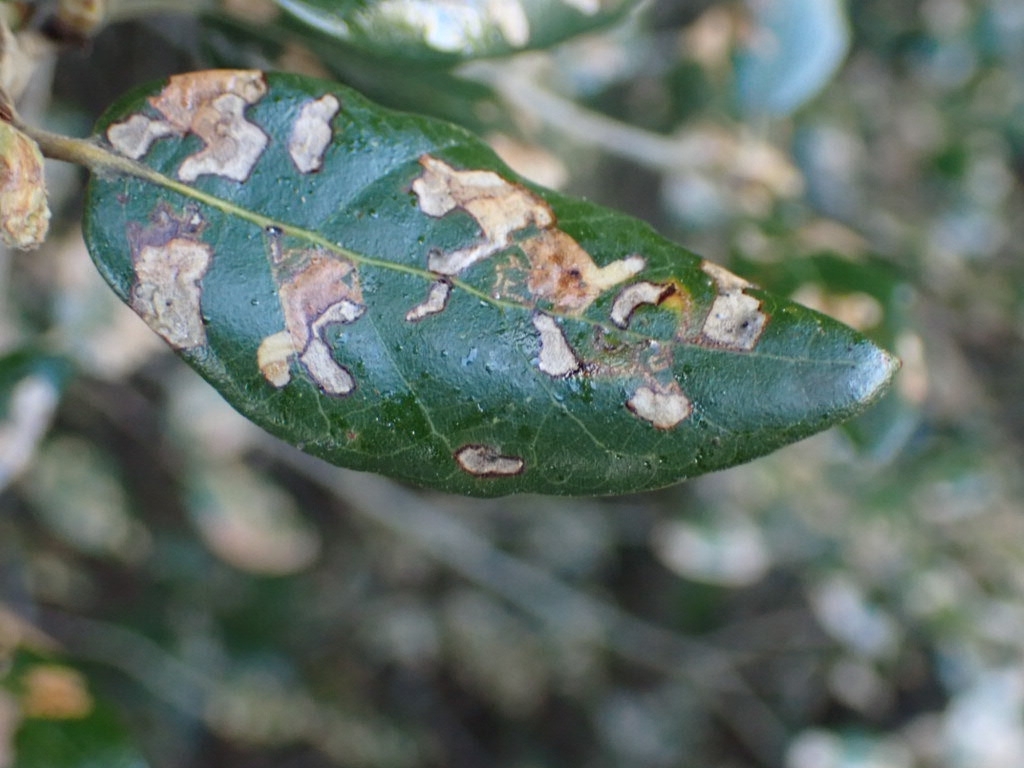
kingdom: Animalia
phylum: Arthropoda
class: Insecta
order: Lepidoptera
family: Nepticulidae
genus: Ectoedemia
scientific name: Ectoedemia heringella
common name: New holm-oak pigmy
